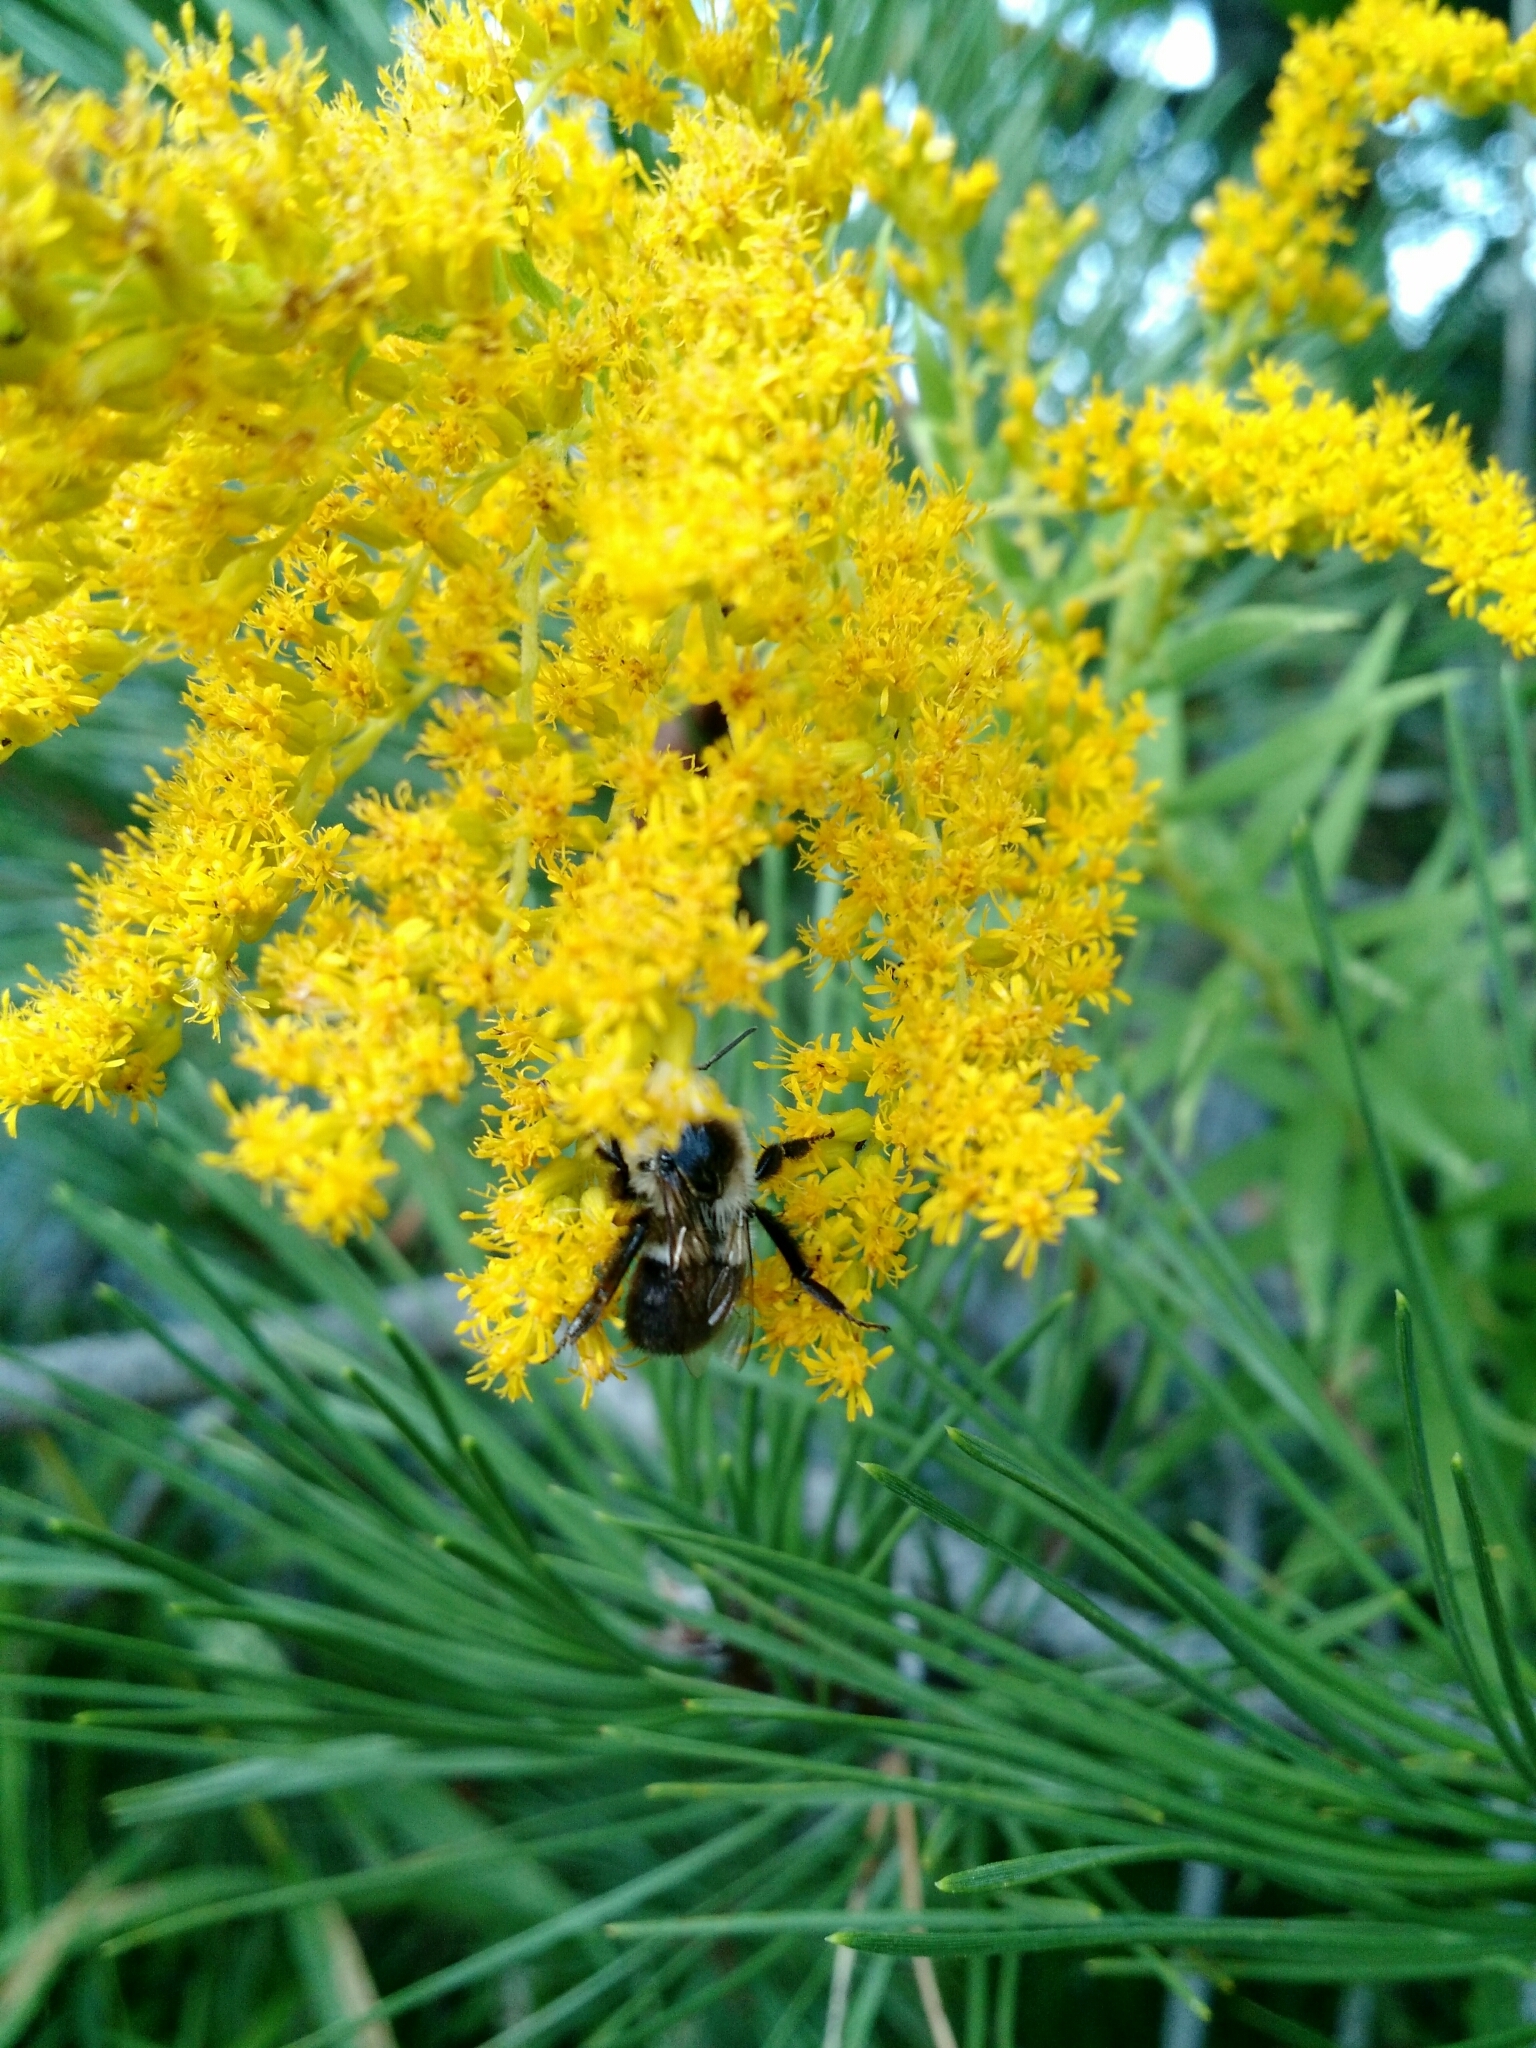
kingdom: Animalia
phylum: Arthropoda
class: Insecta
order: Hymenoptera
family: Apidae
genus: Bombus
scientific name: Bombus impatiens
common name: Common eastern bumble bee
